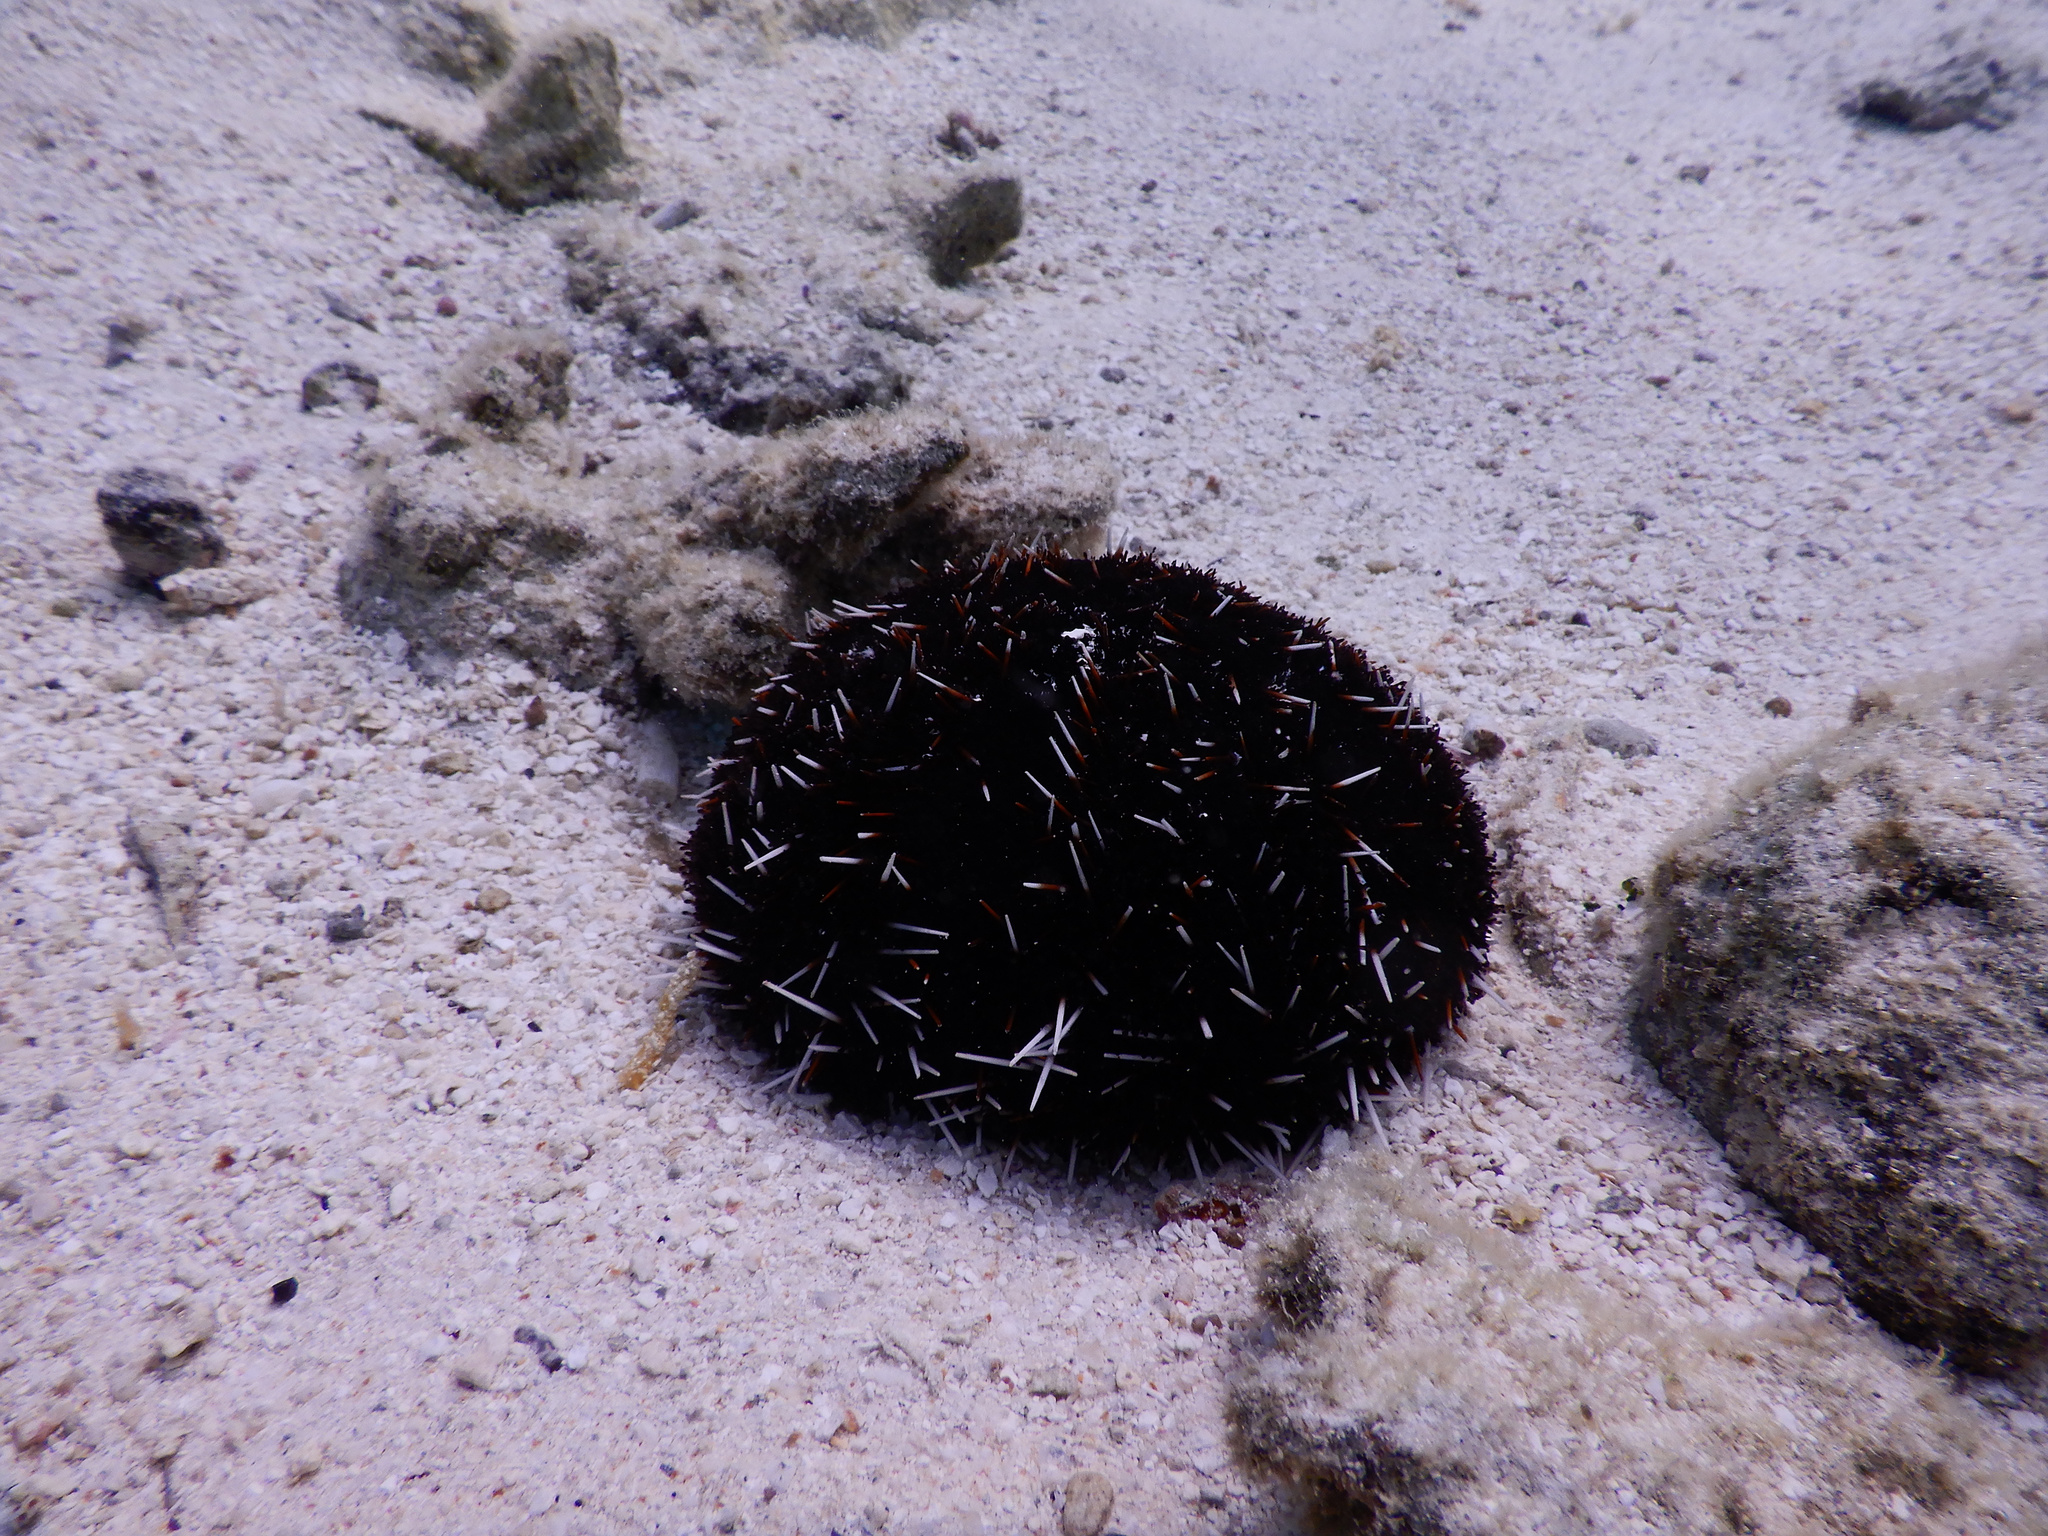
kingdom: Animalia
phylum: Echinodermata
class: Echinoidea
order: Camarodonta
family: Toxopneustidae
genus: Tripneustes
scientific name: Tripneustes gratilla
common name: Bischofsmützenseeigel
